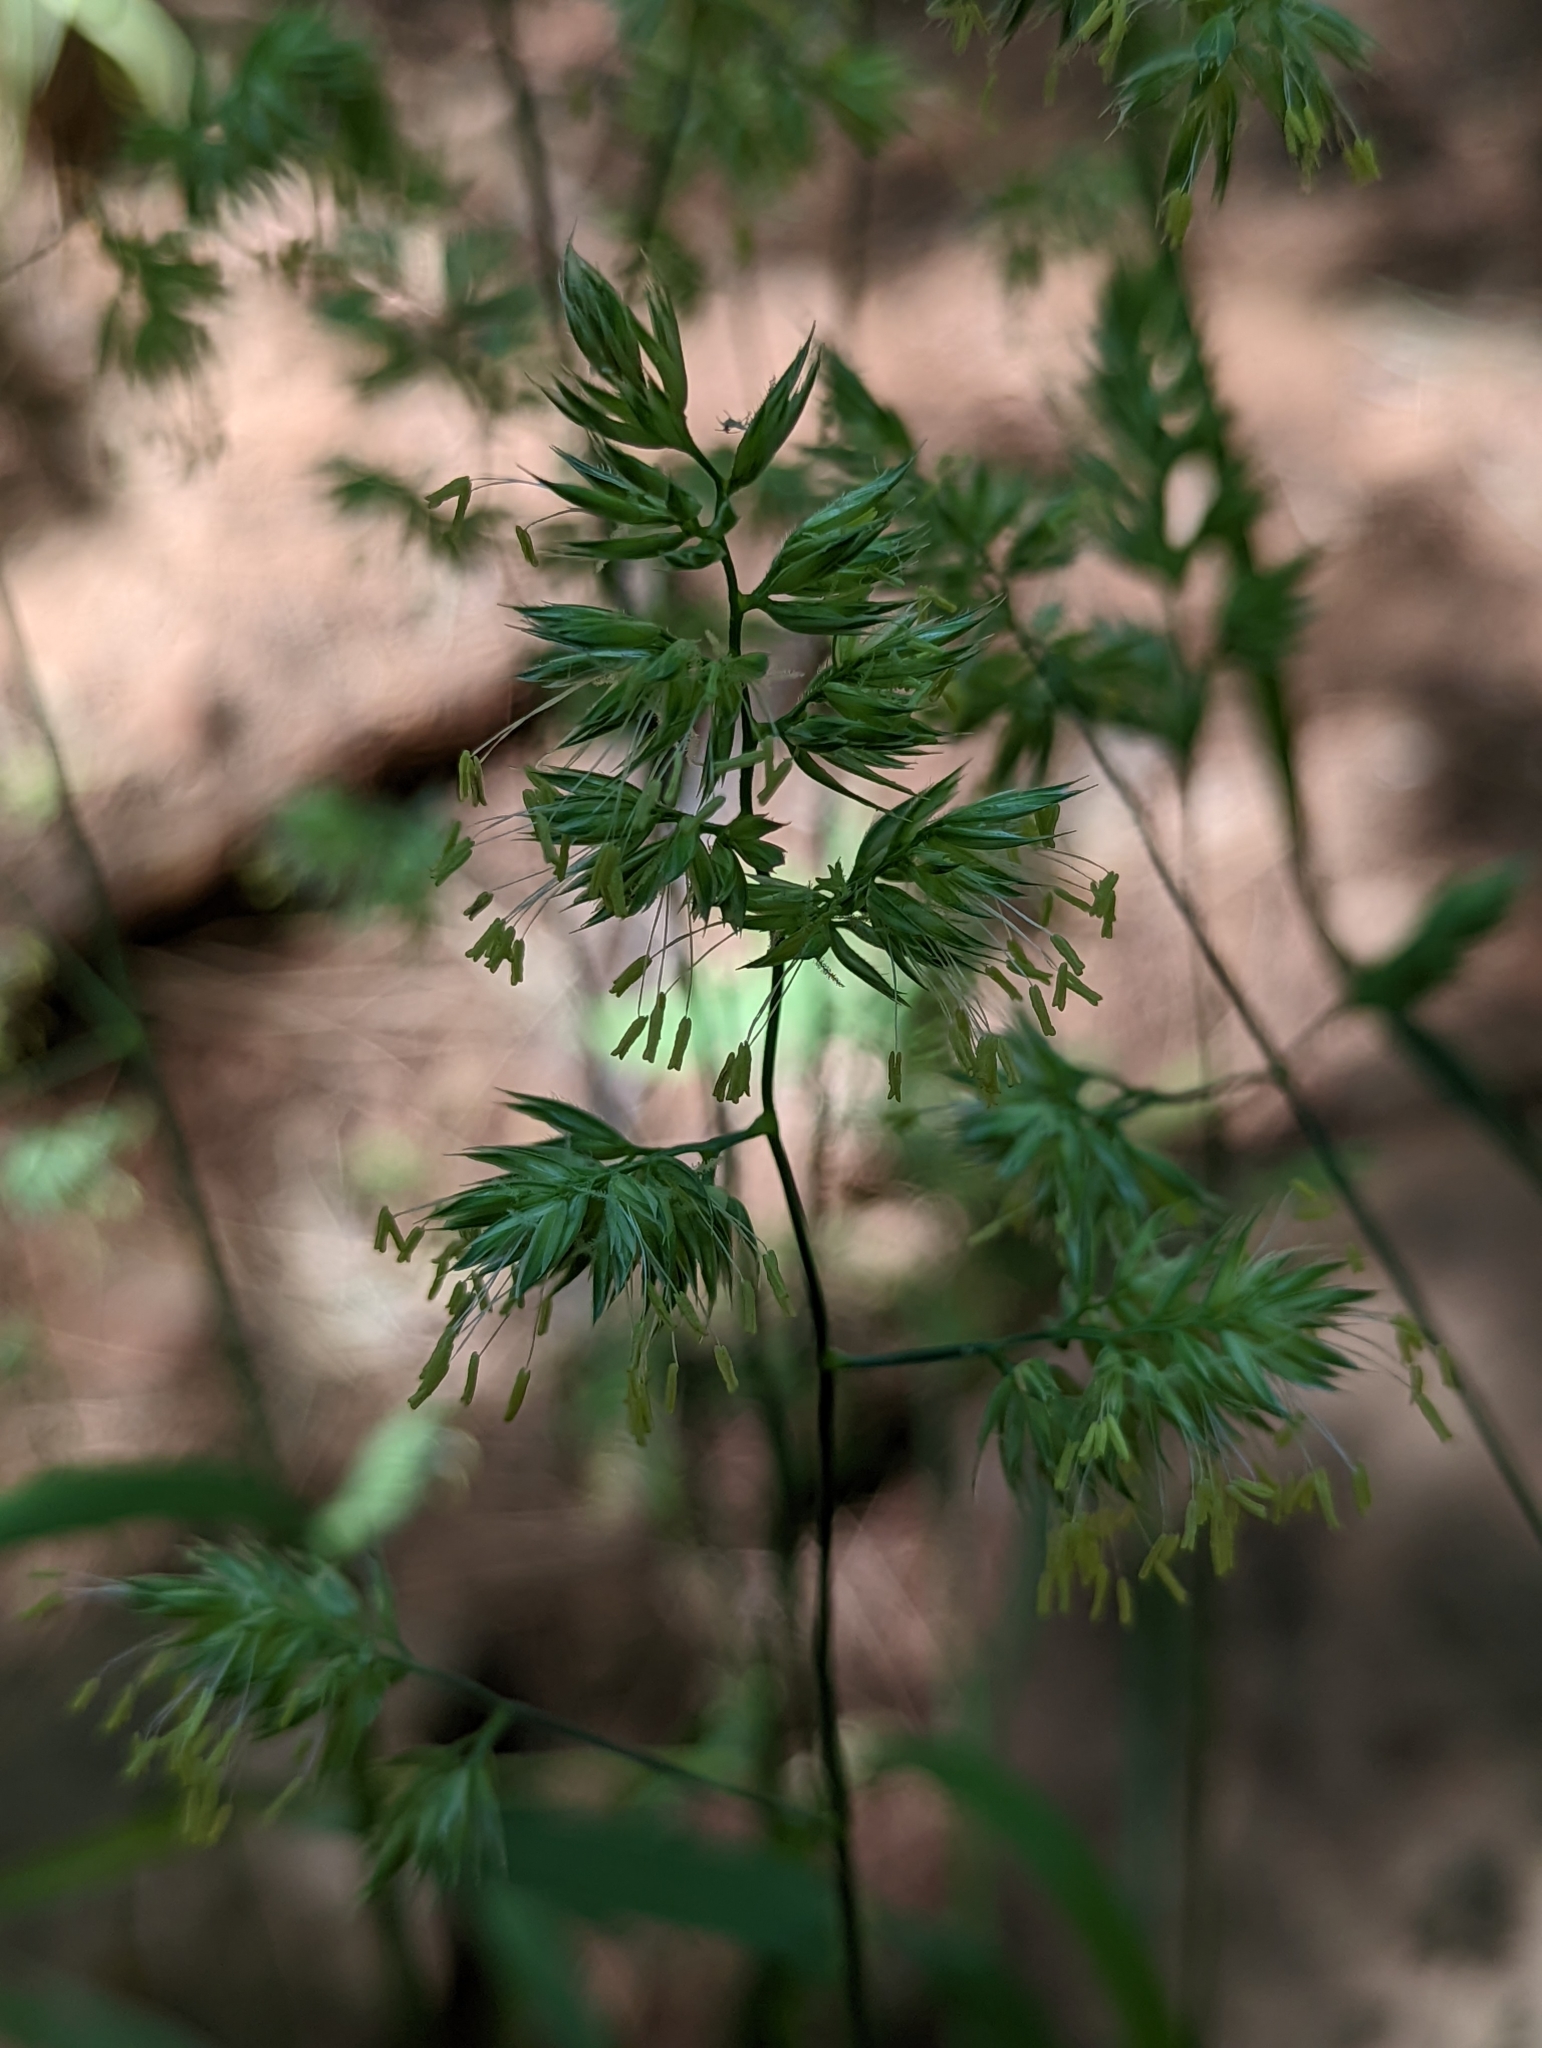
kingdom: Plantae
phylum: Tracheophyta
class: Liliopsida
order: Poales
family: Poaceae
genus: Dactylis
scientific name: Dactylis glomerata
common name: Orchardgrass
